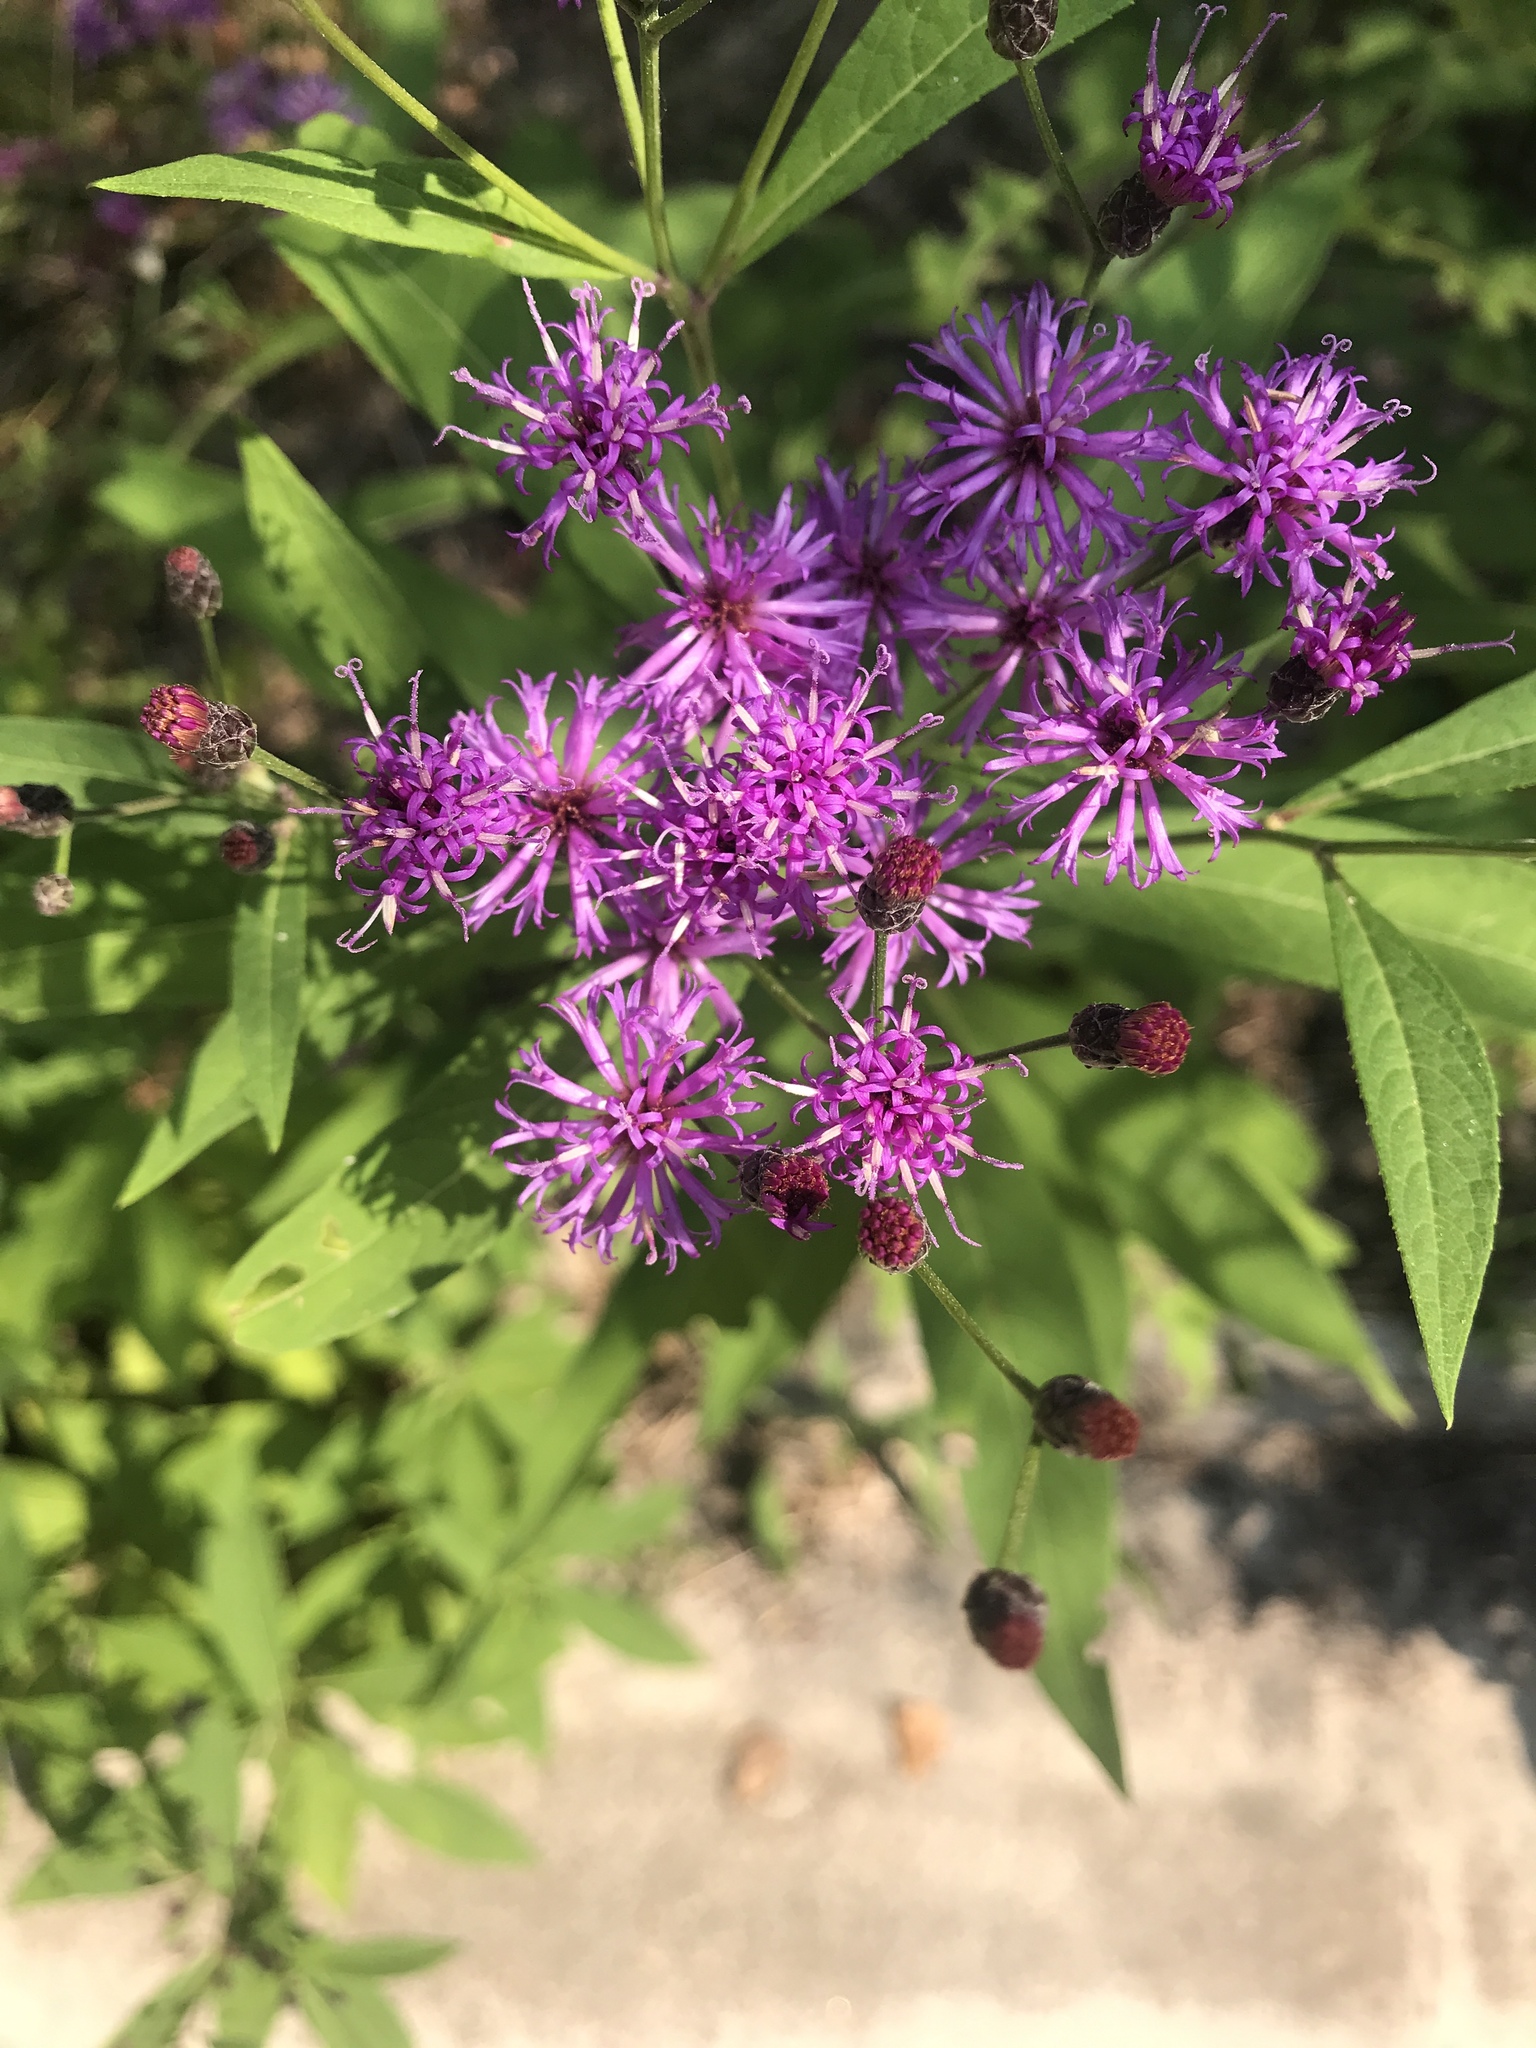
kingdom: Plantae
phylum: Tracheophyta
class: Magnoliopsida
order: Asterales
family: Asteraceae
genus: Vernonia
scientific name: Vernonia gigantea
